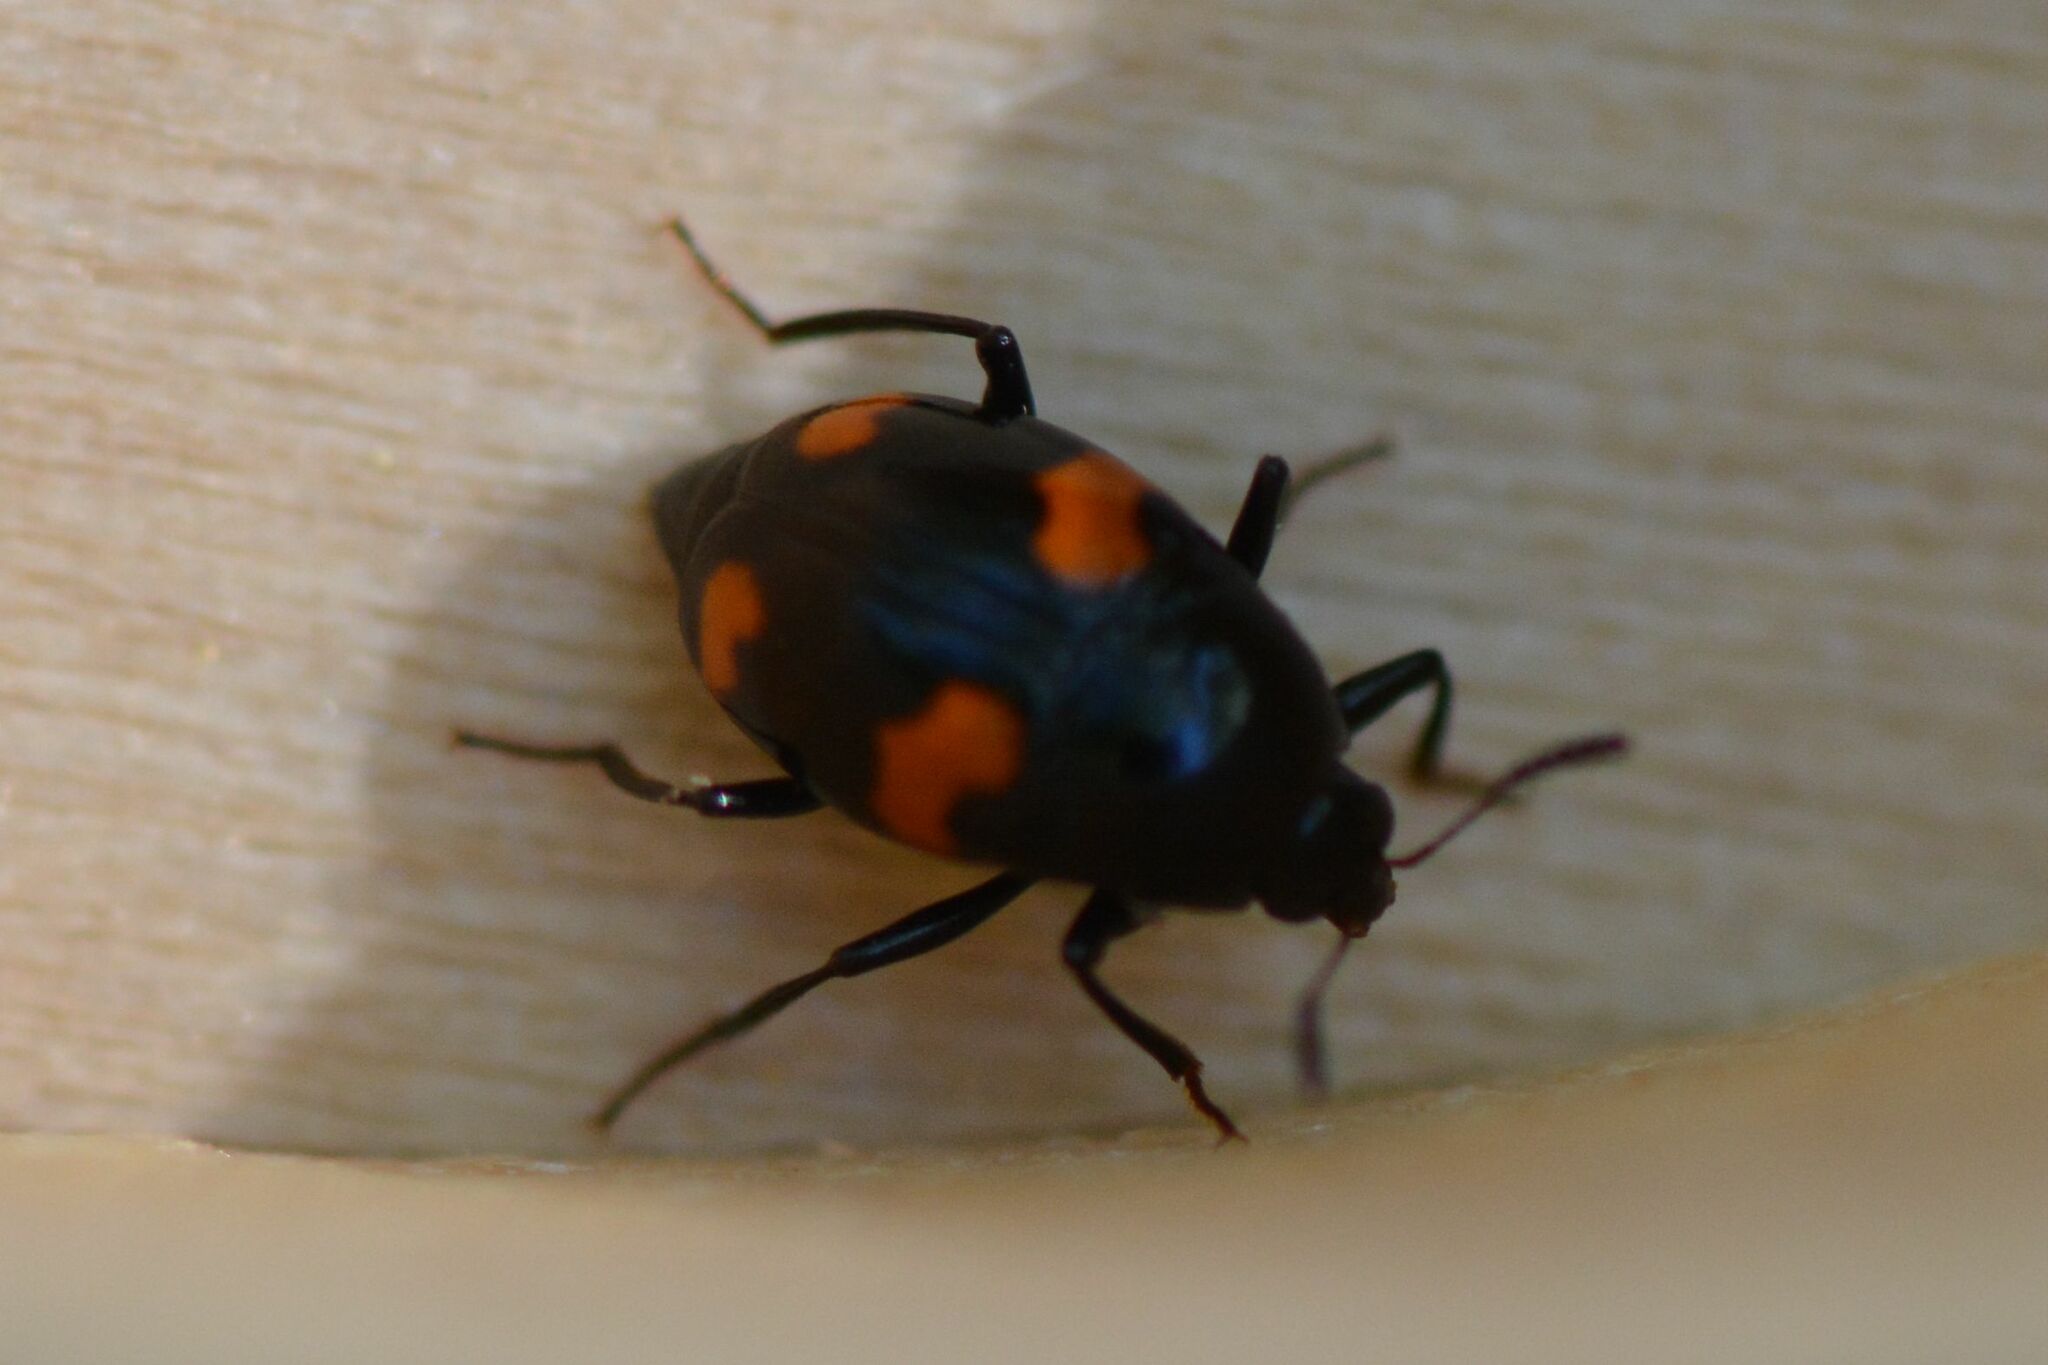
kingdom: Animalia
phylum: Arthropoda
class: Insecta
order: Coleoptera
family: Staphylinidae
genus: Scaphidium
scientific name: Scaphidium quadrimaculatum
